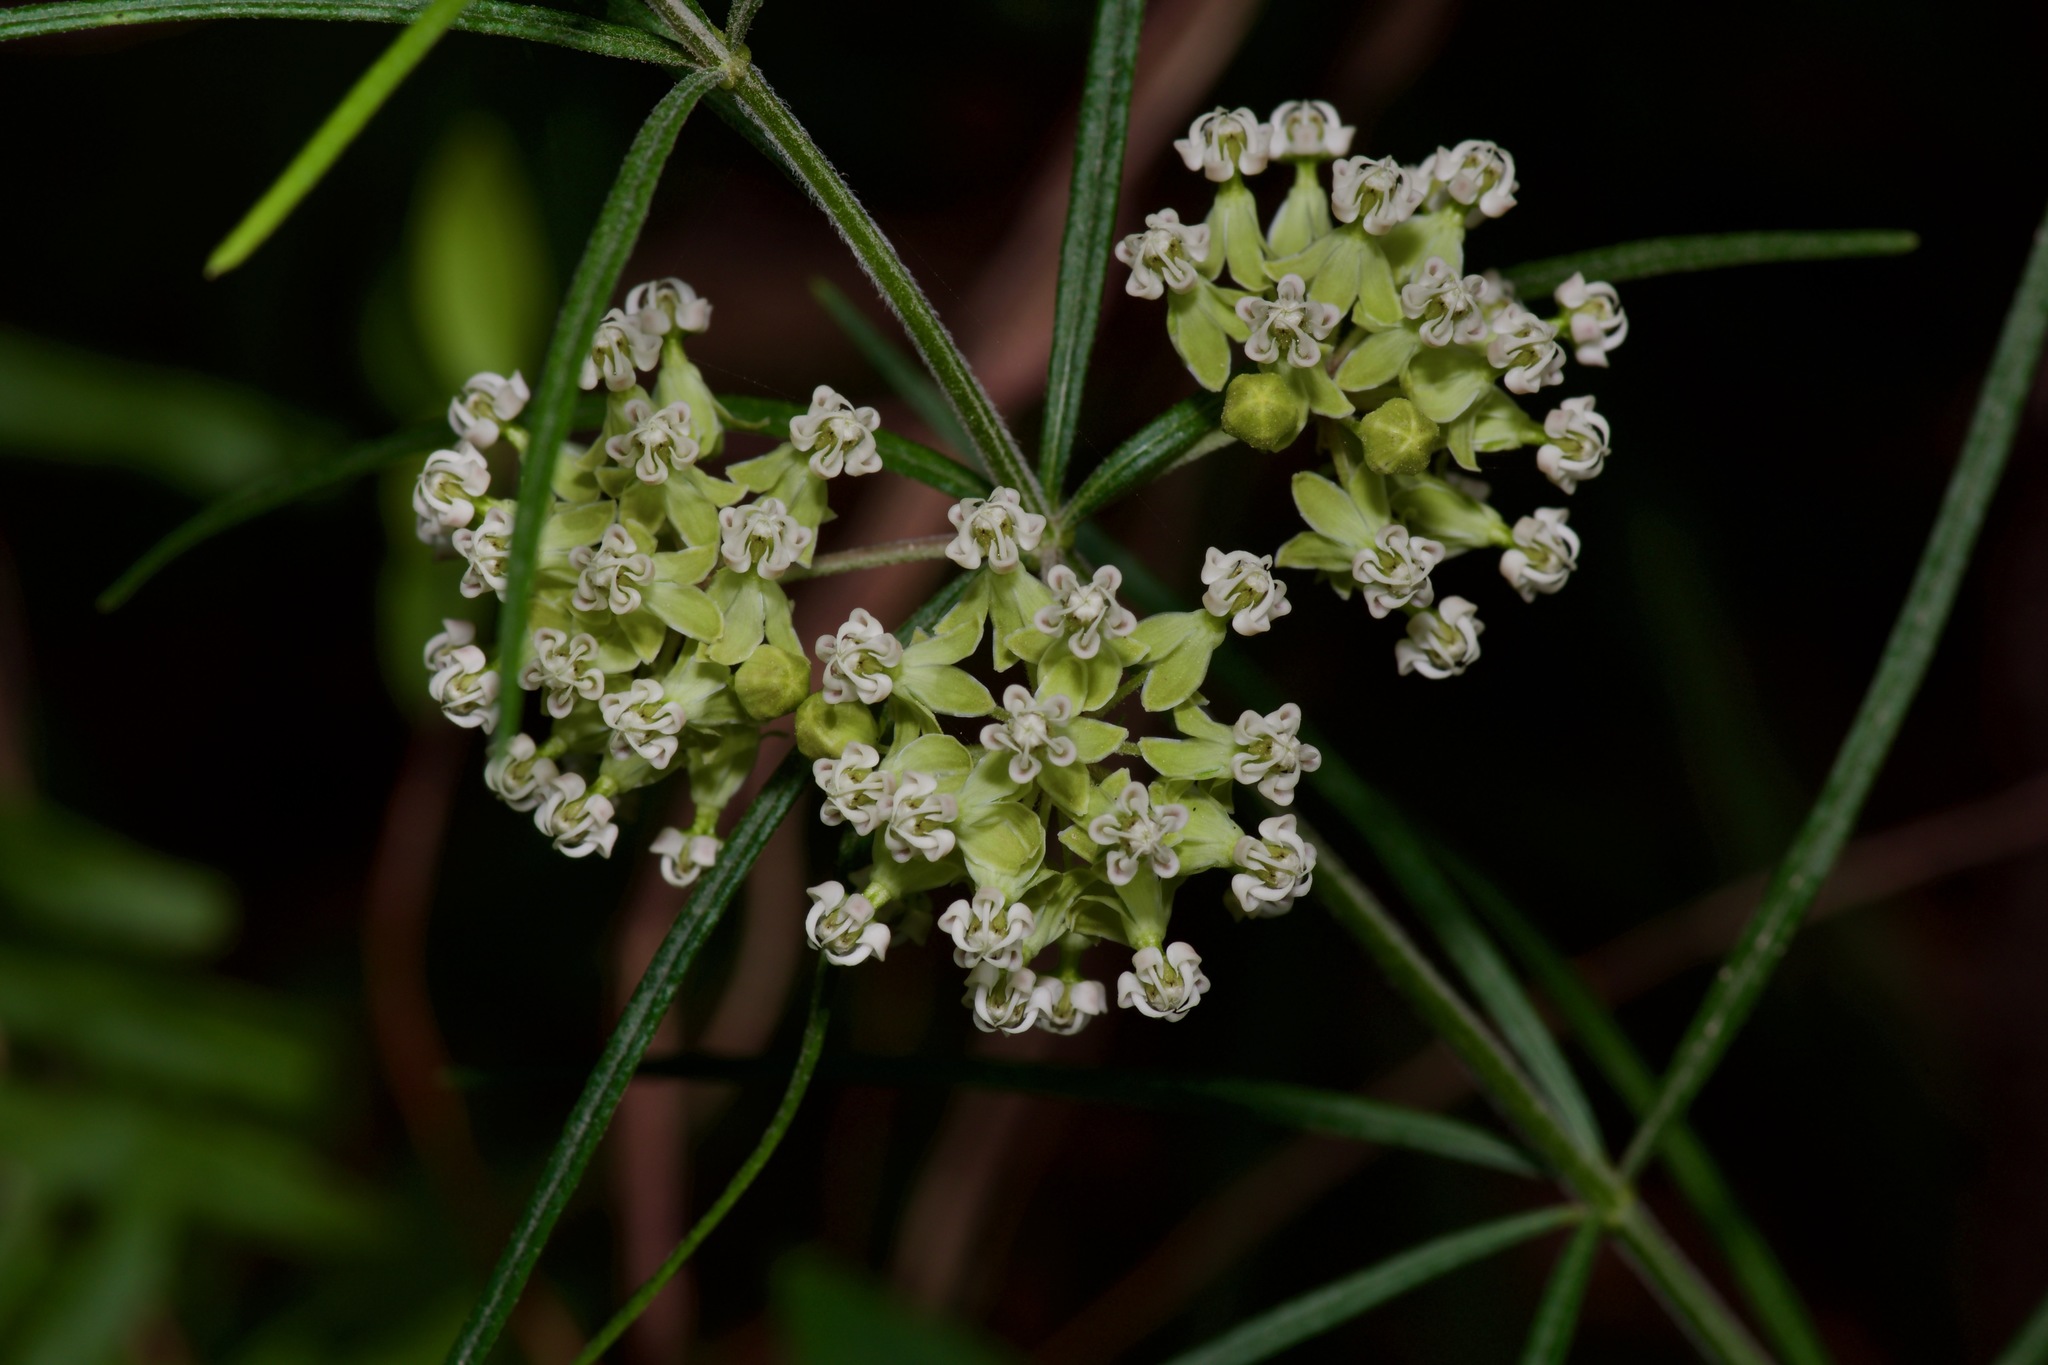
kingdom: Plantae
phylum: Tracheophyta
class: Magnoliopsida
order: Gentianales
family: Apocynaceae
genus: Asclepias
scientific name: Asclepias verticillata
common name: Eastern whorled milkweed
